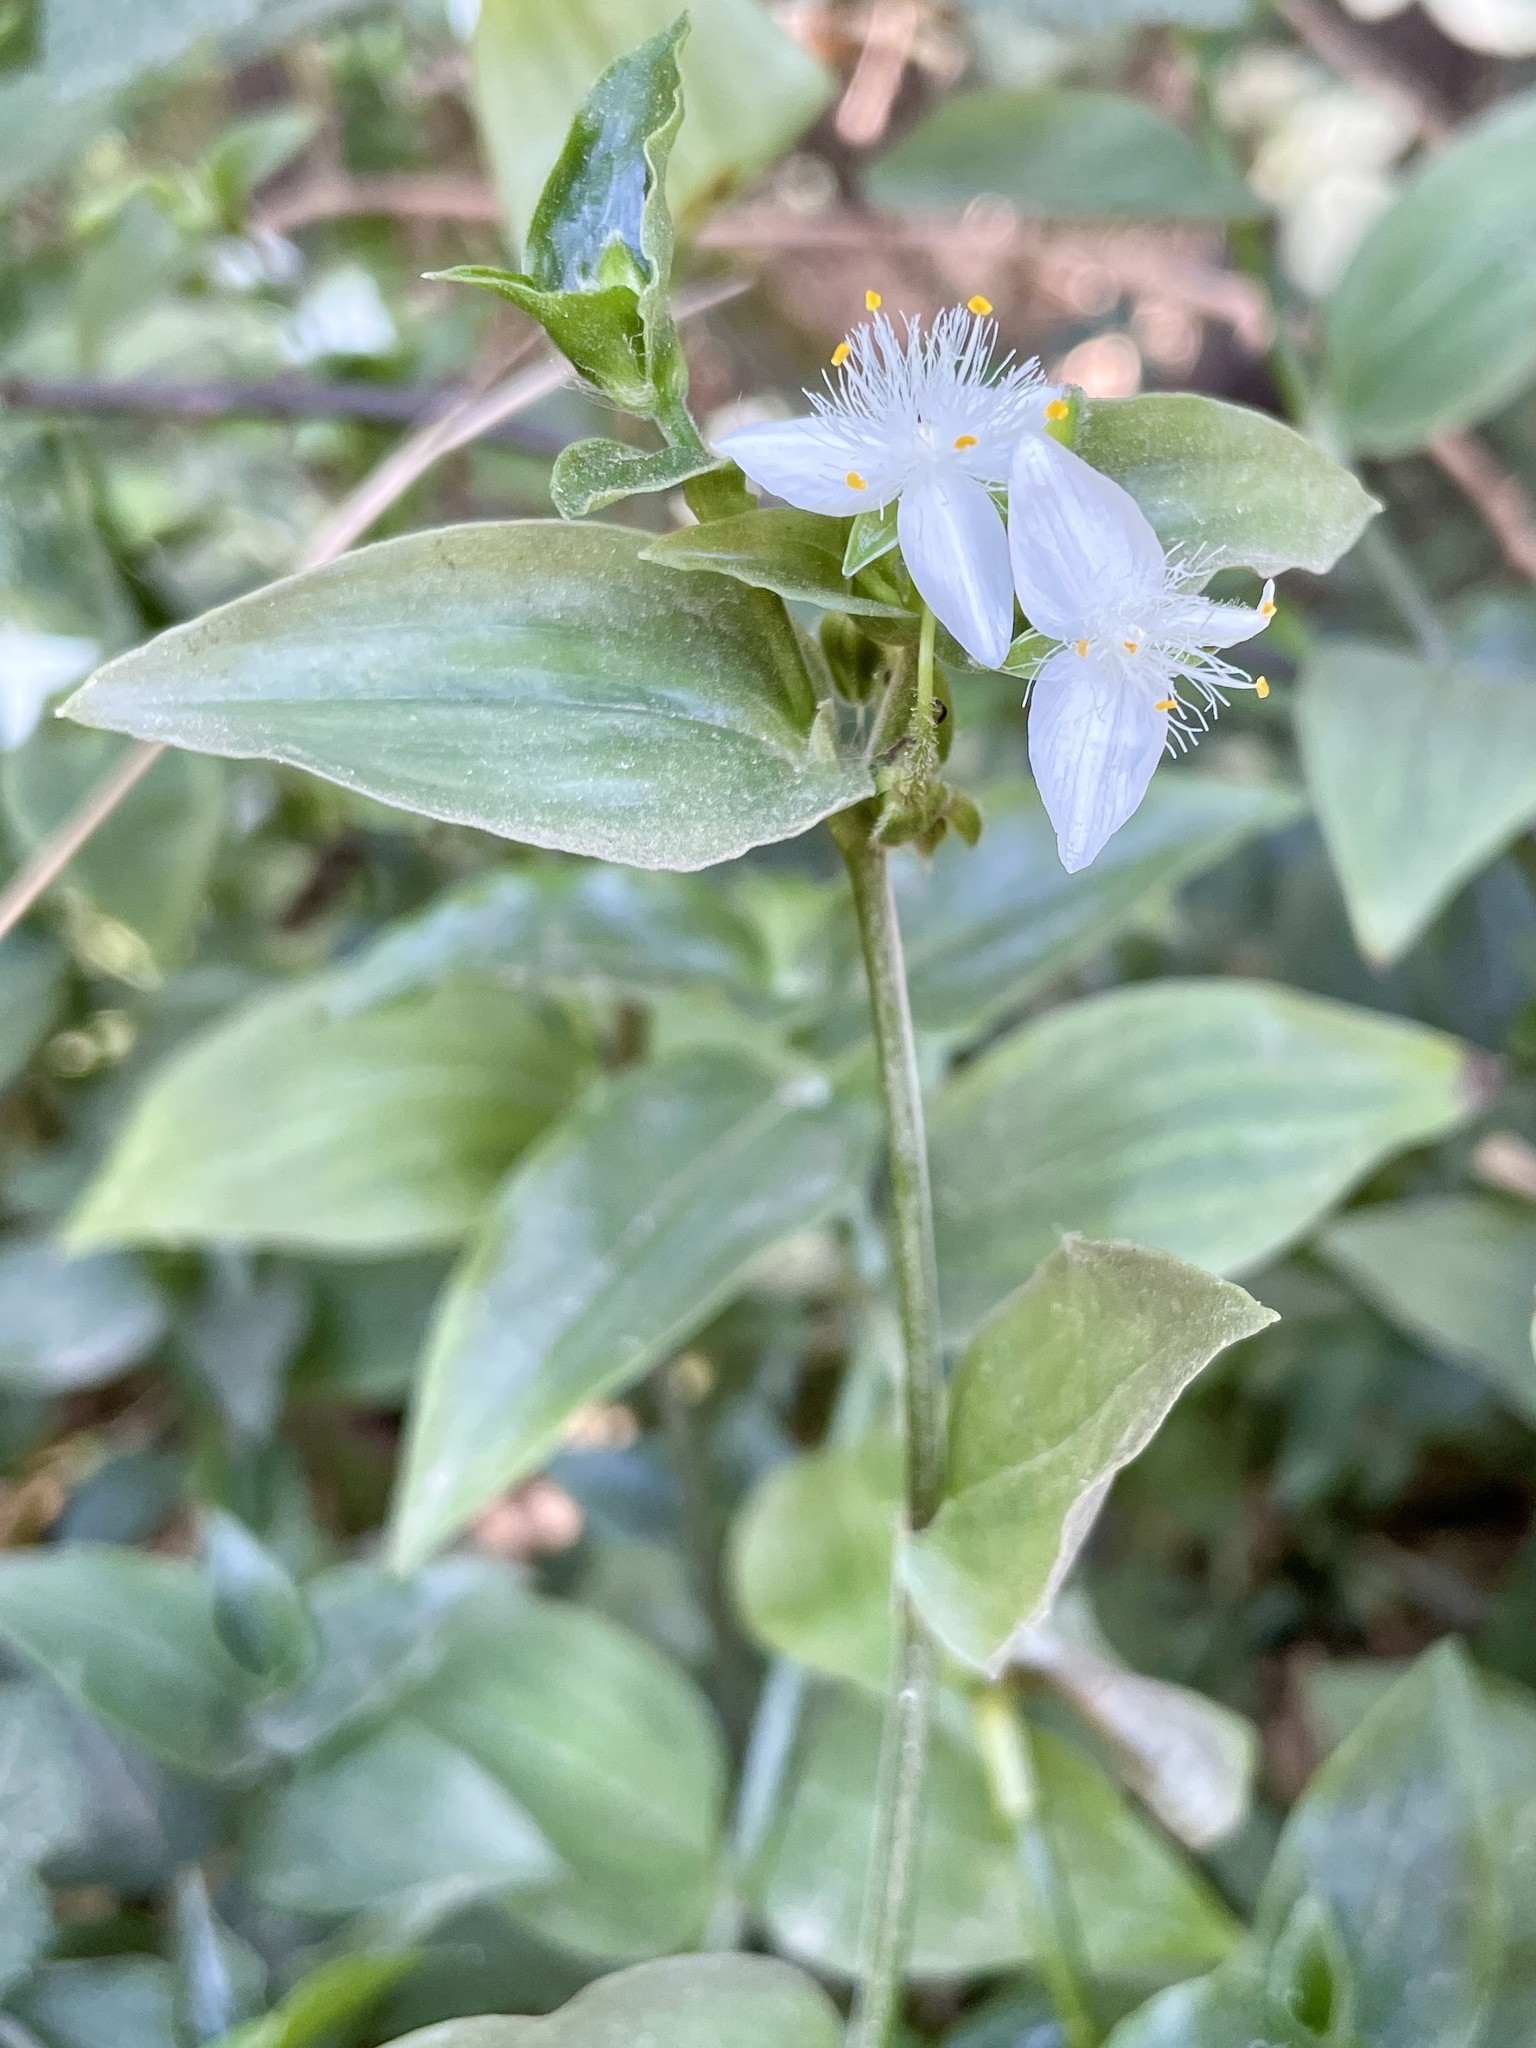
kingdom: Plantae
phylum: Tracheophyta
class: Liliopsida
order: Commelinales
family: Commelinaceae
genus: Tradescantia
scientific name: Tradescantia fluminensis
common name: Wandering-jew
